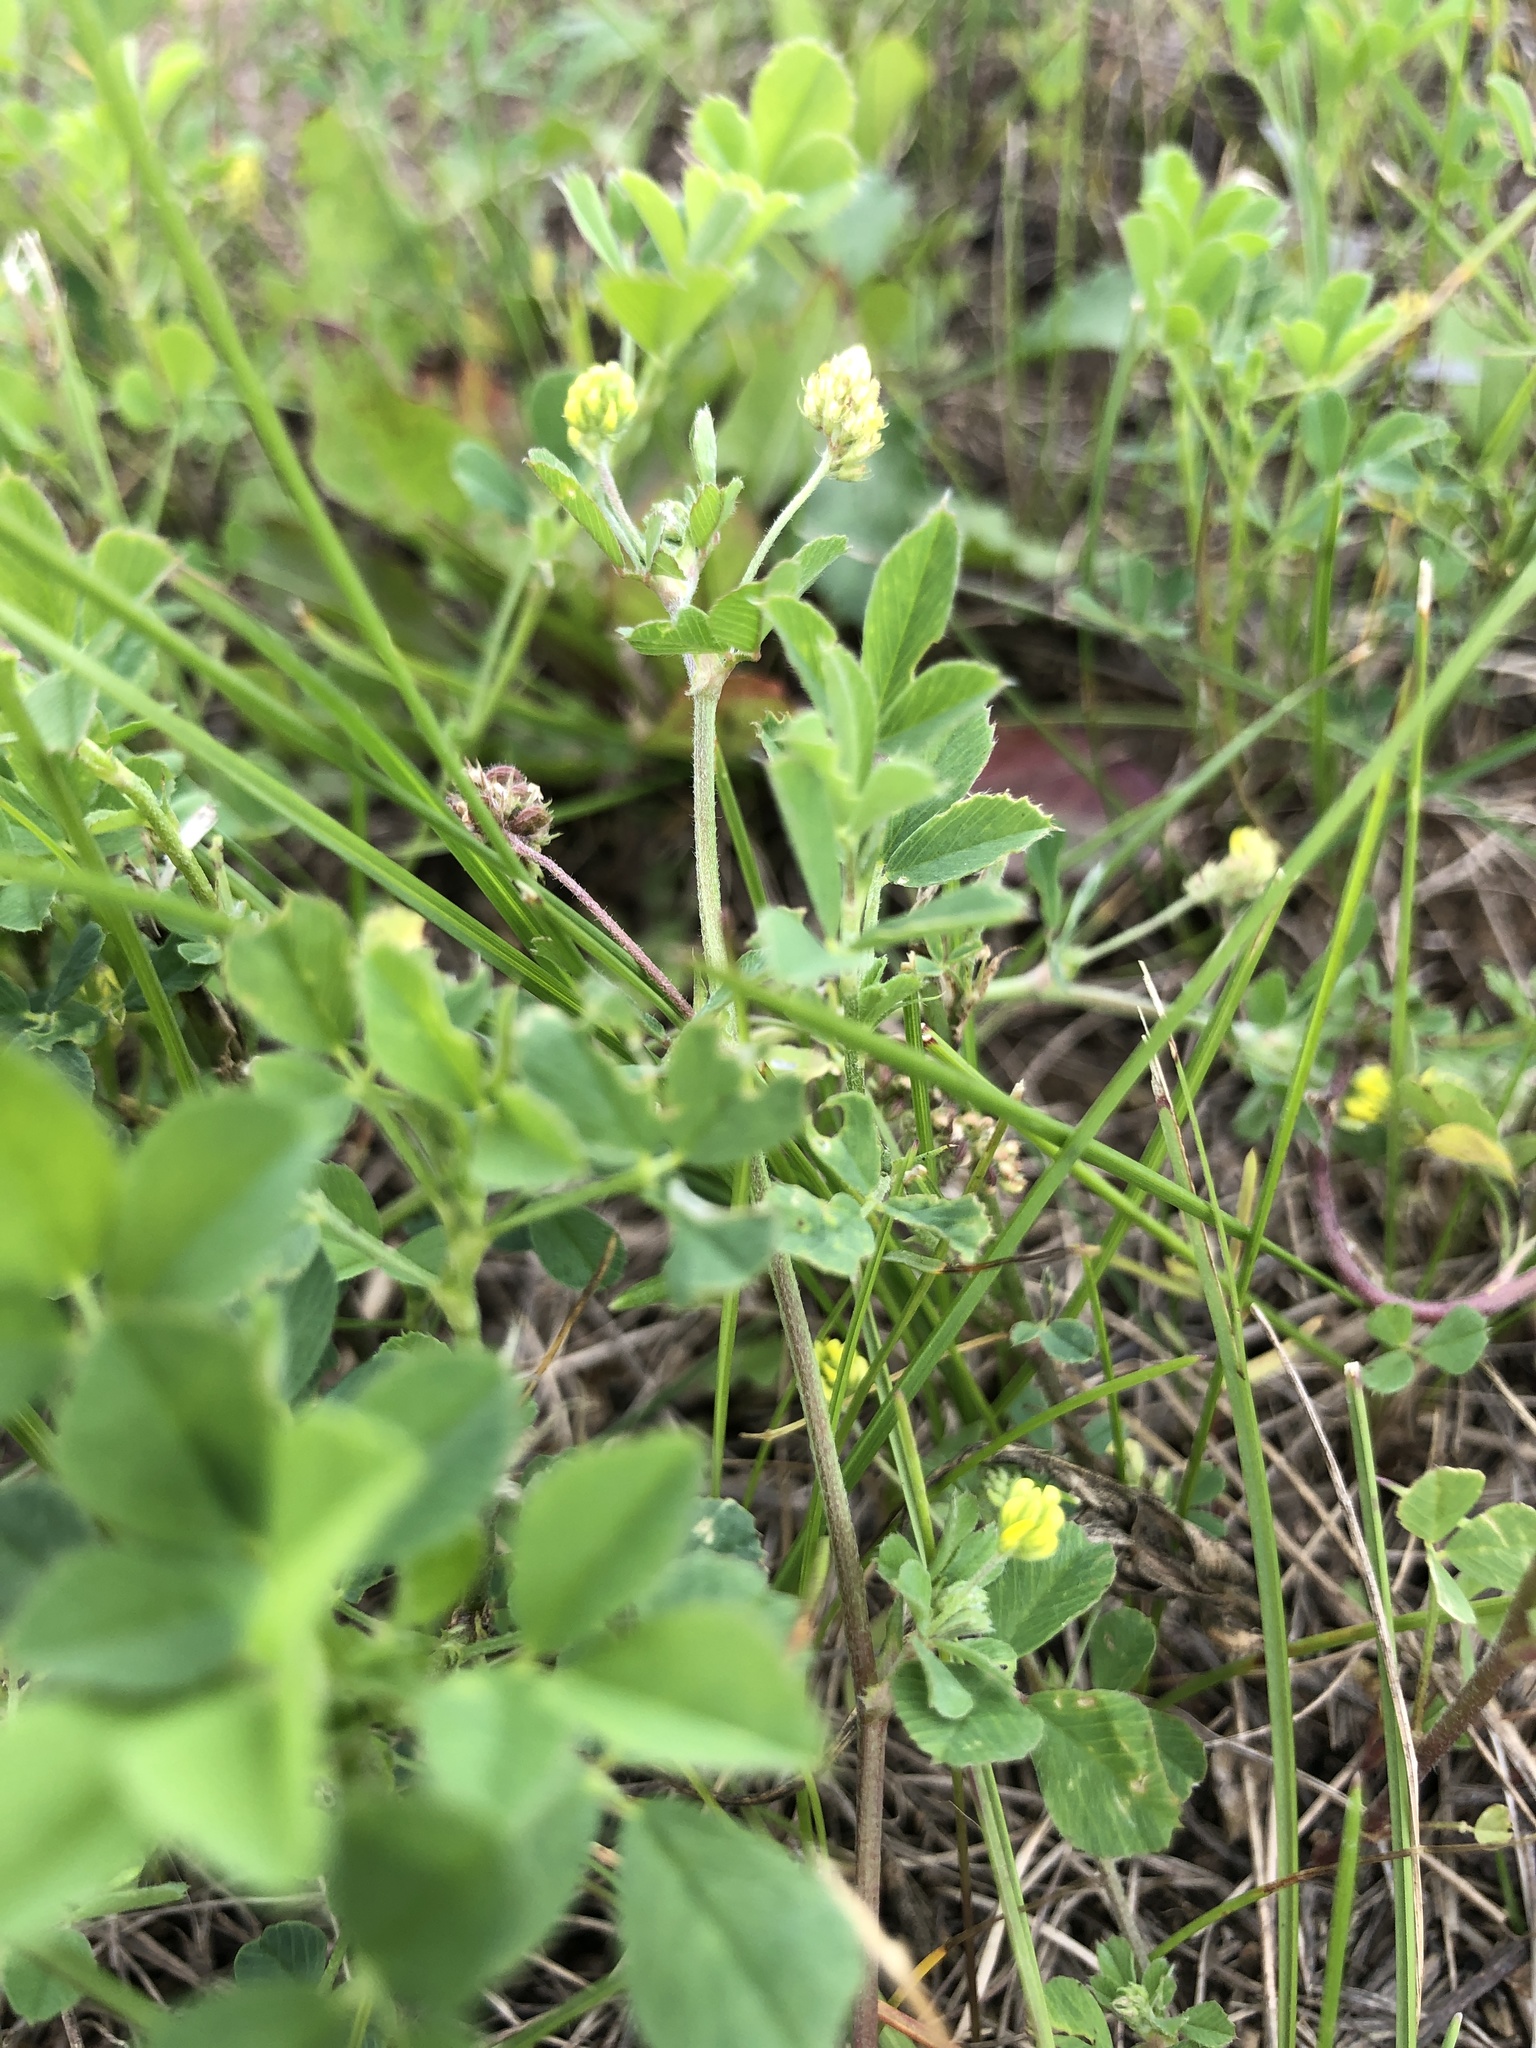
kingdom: Plantae
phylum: Tracheophyta
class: Magnoliopsida
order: Fabales
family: Fabaceae
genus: Medicago
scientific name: Medicago lupulina
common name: Black medick
